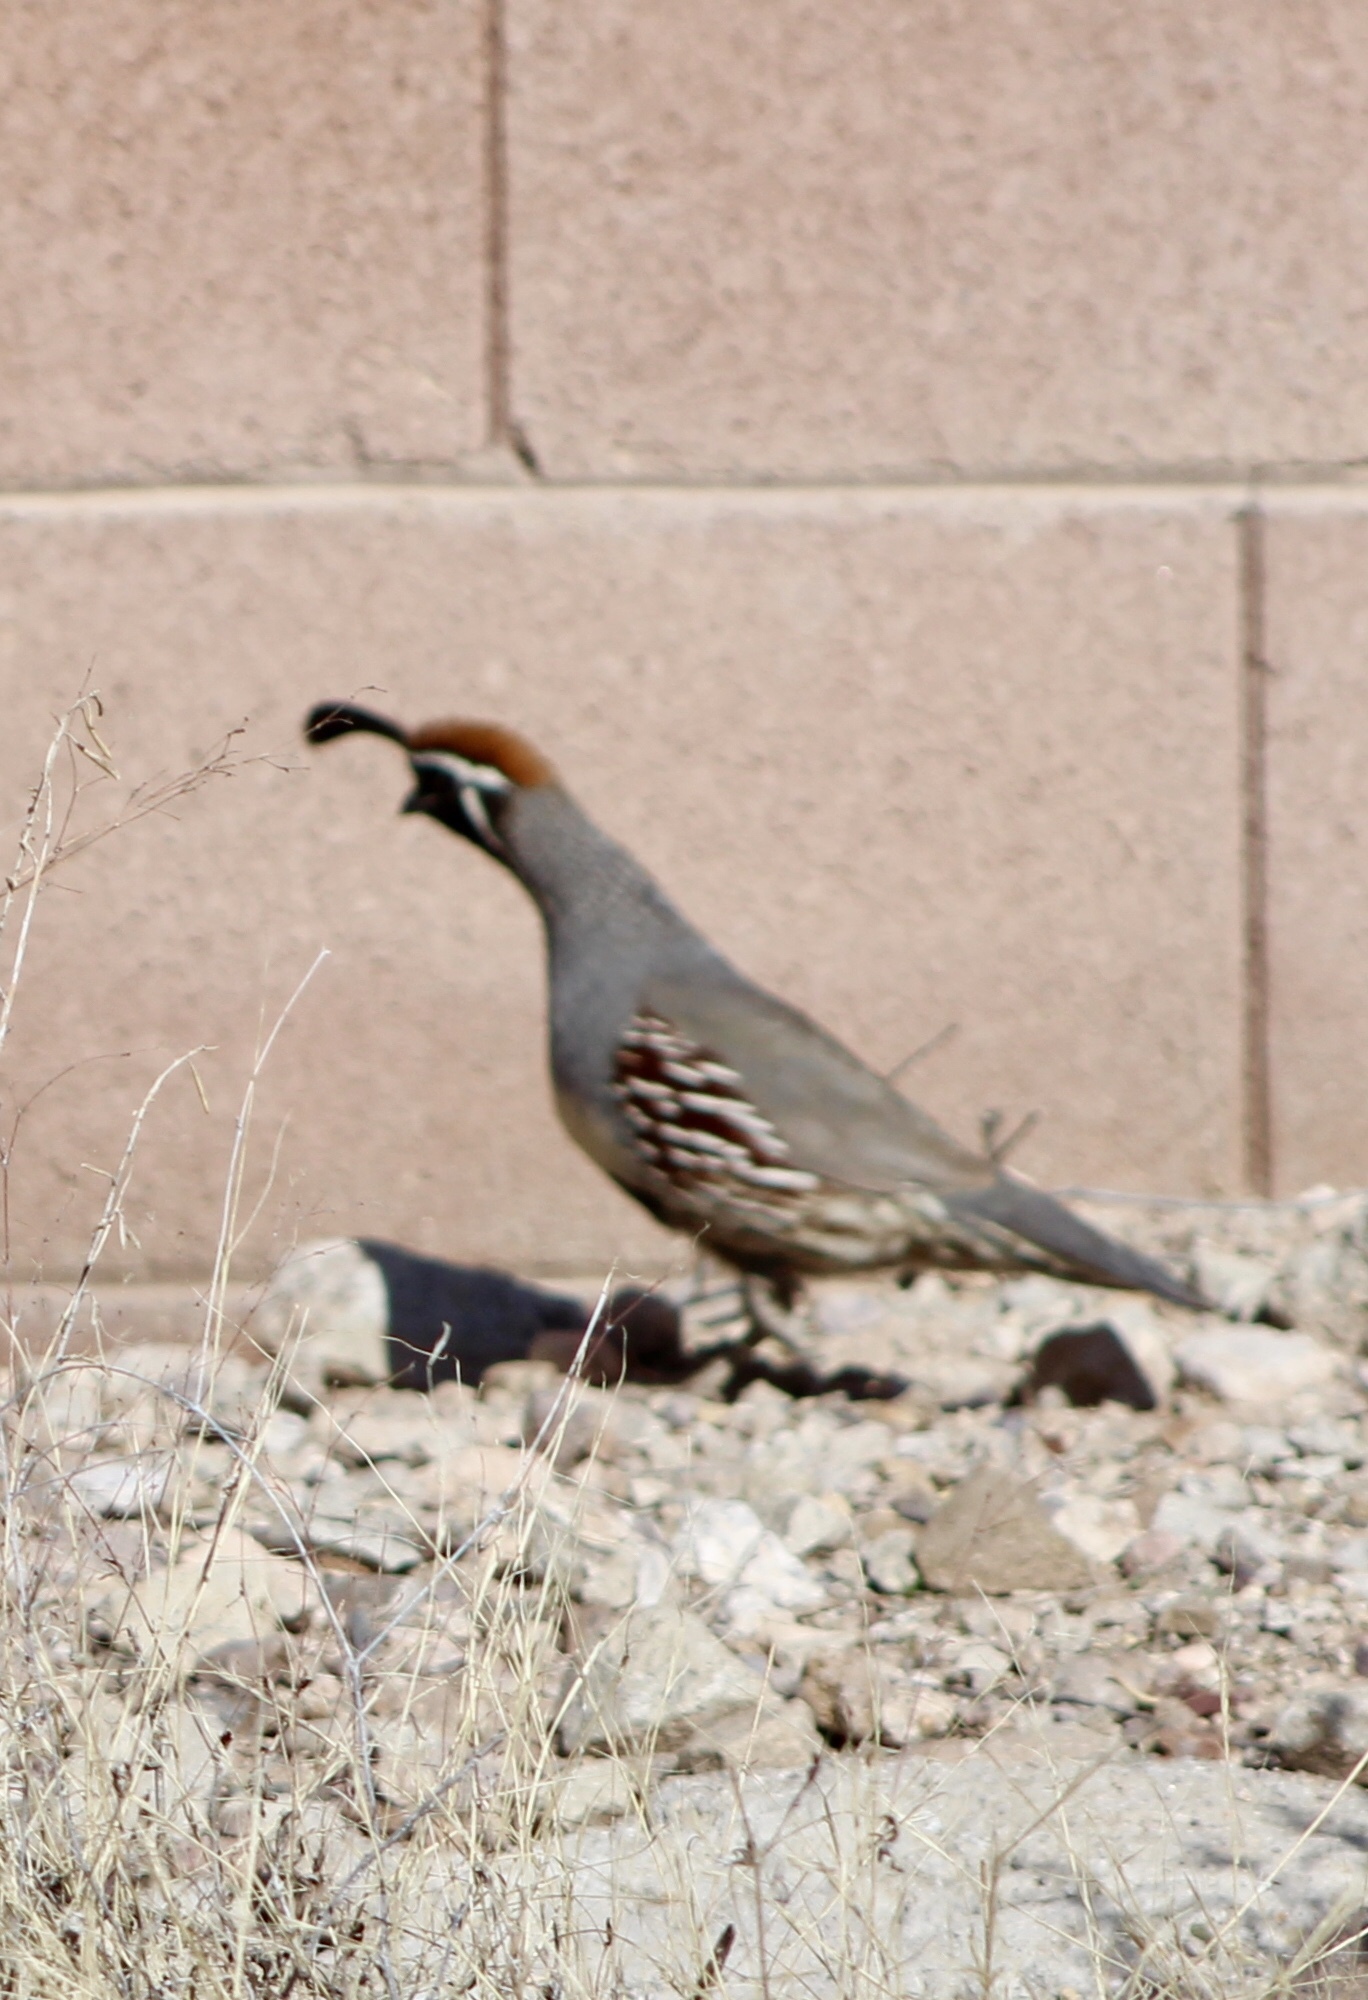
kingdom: Animalia
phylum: Chordata
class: Aves
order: Galliformes
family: Odontophoridae
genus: Callipepla
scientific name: Callipepla gambelii
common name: Gambel's quail
